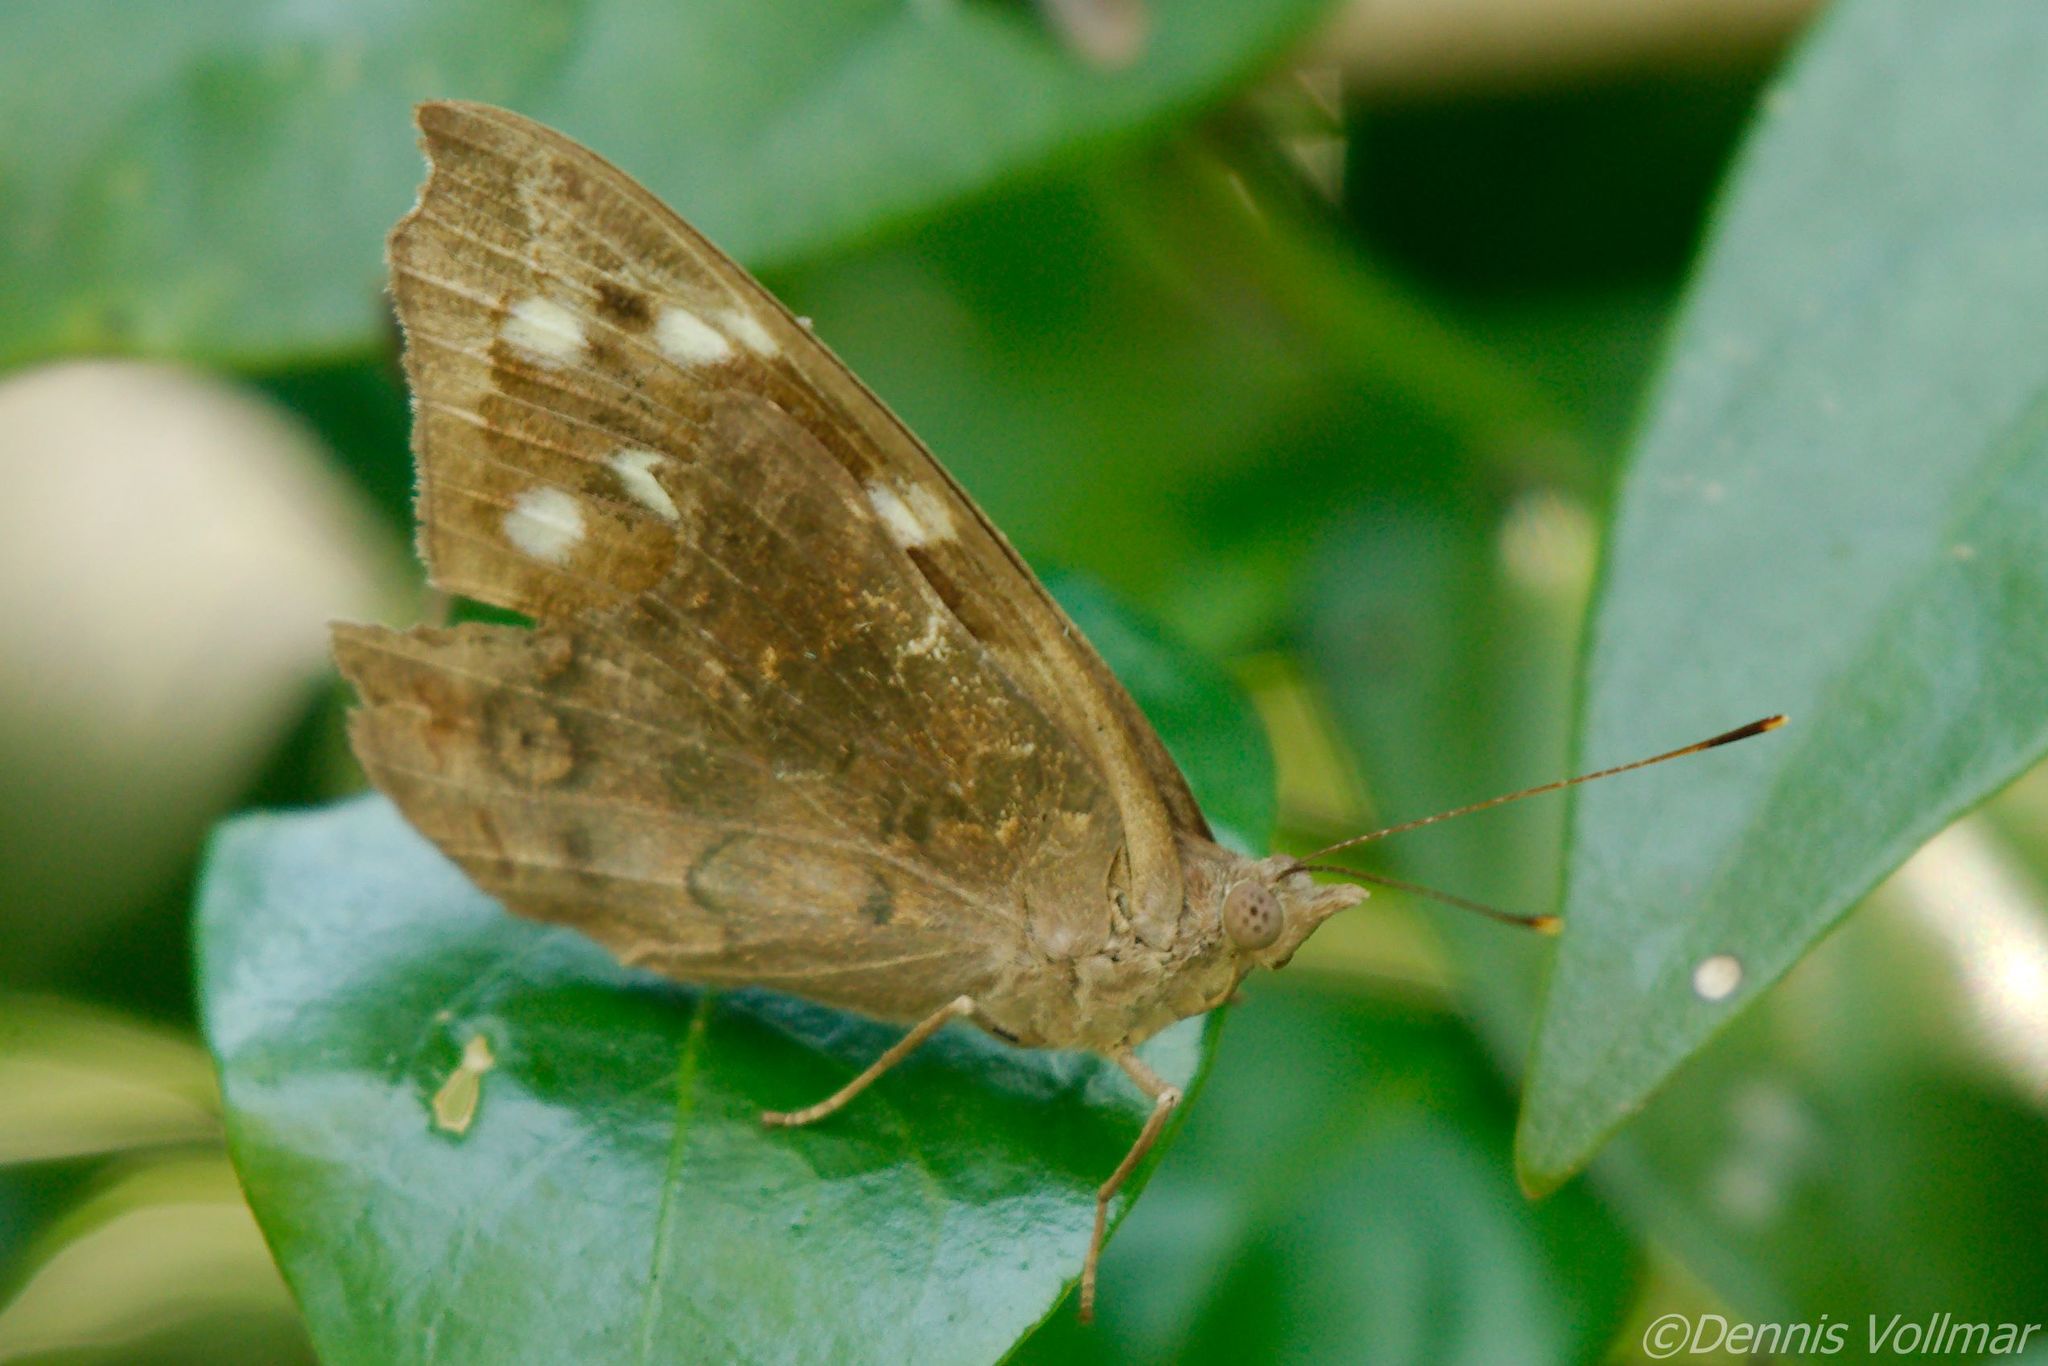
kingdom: Animalia
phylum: Arthropoda
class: Insecta
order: Lepidoptera
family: Nymphalidae
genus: Eunica
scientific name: Eunica tatila
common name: Florida purplewing
